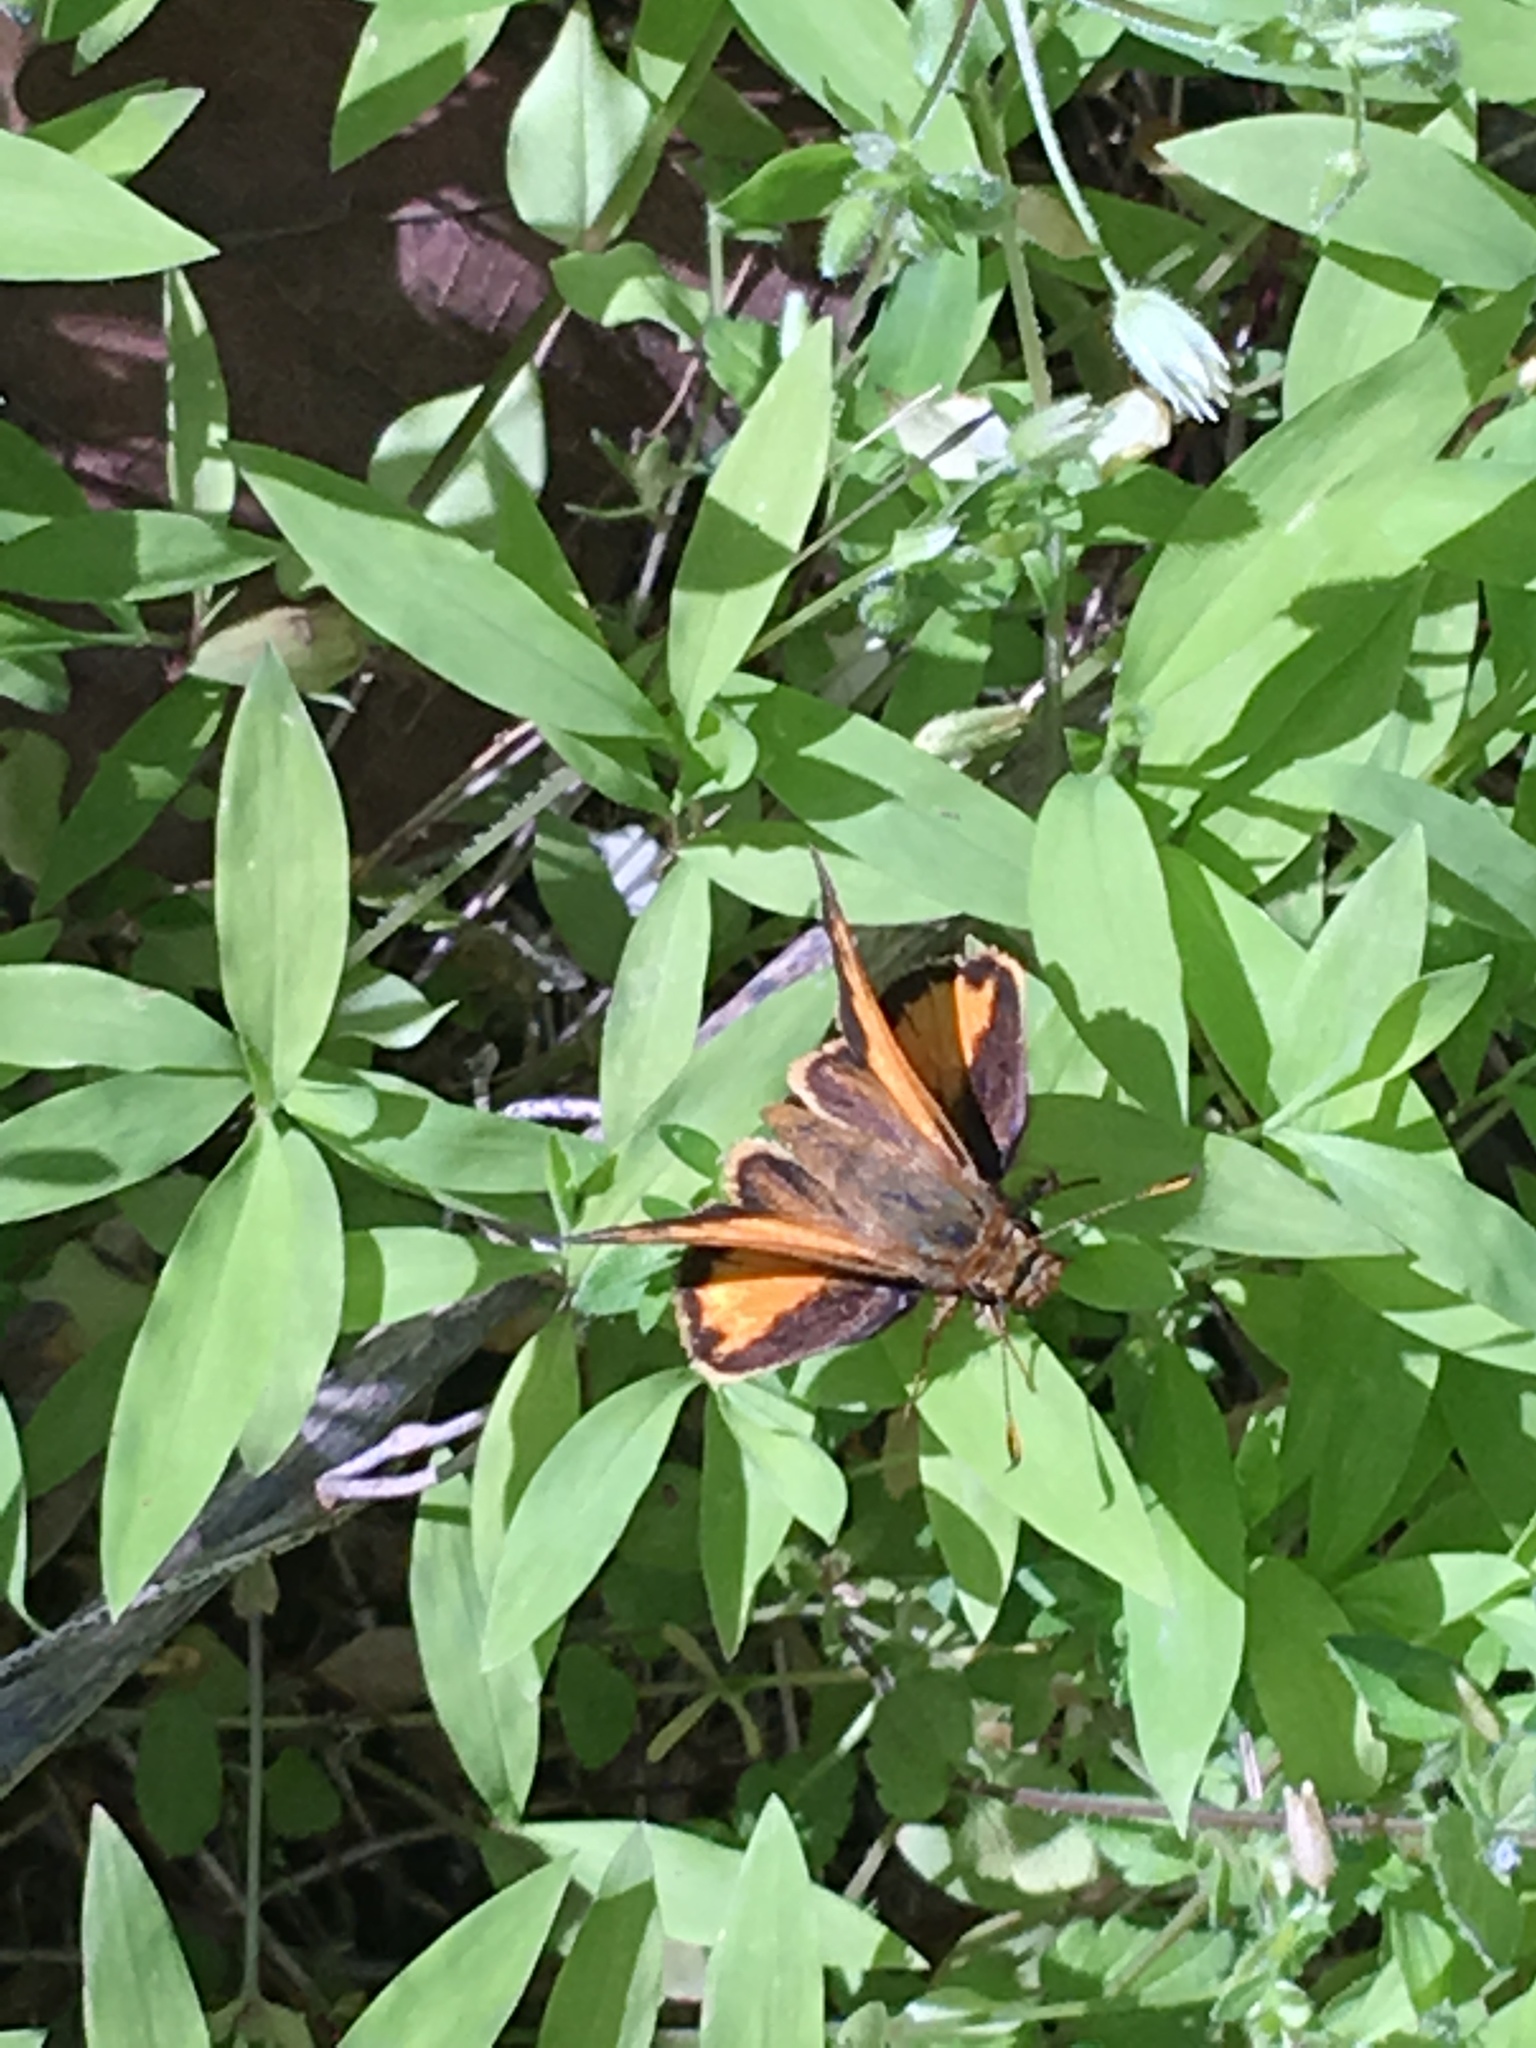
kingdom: Animalia
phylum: Arthropoda
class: Insecta
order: Lepidoptera
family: Hesperiidae
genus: Lon
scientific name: Lon zabulon
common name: Zabulon skipper
